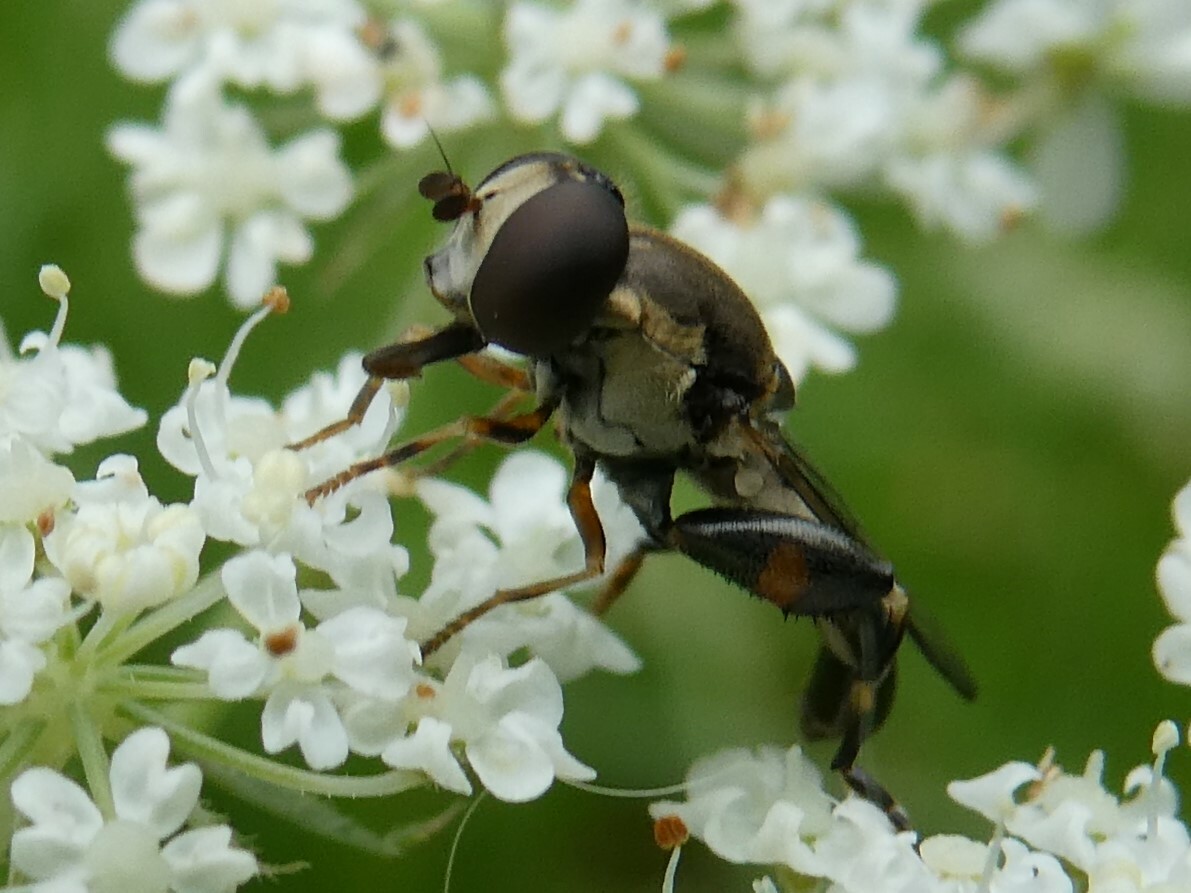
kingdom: Animalia
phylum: Arthropoda
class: Insecta
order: Diptera
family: Syrphidae
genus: Syritta
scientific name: Syritta pipiens
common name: Hover fly
